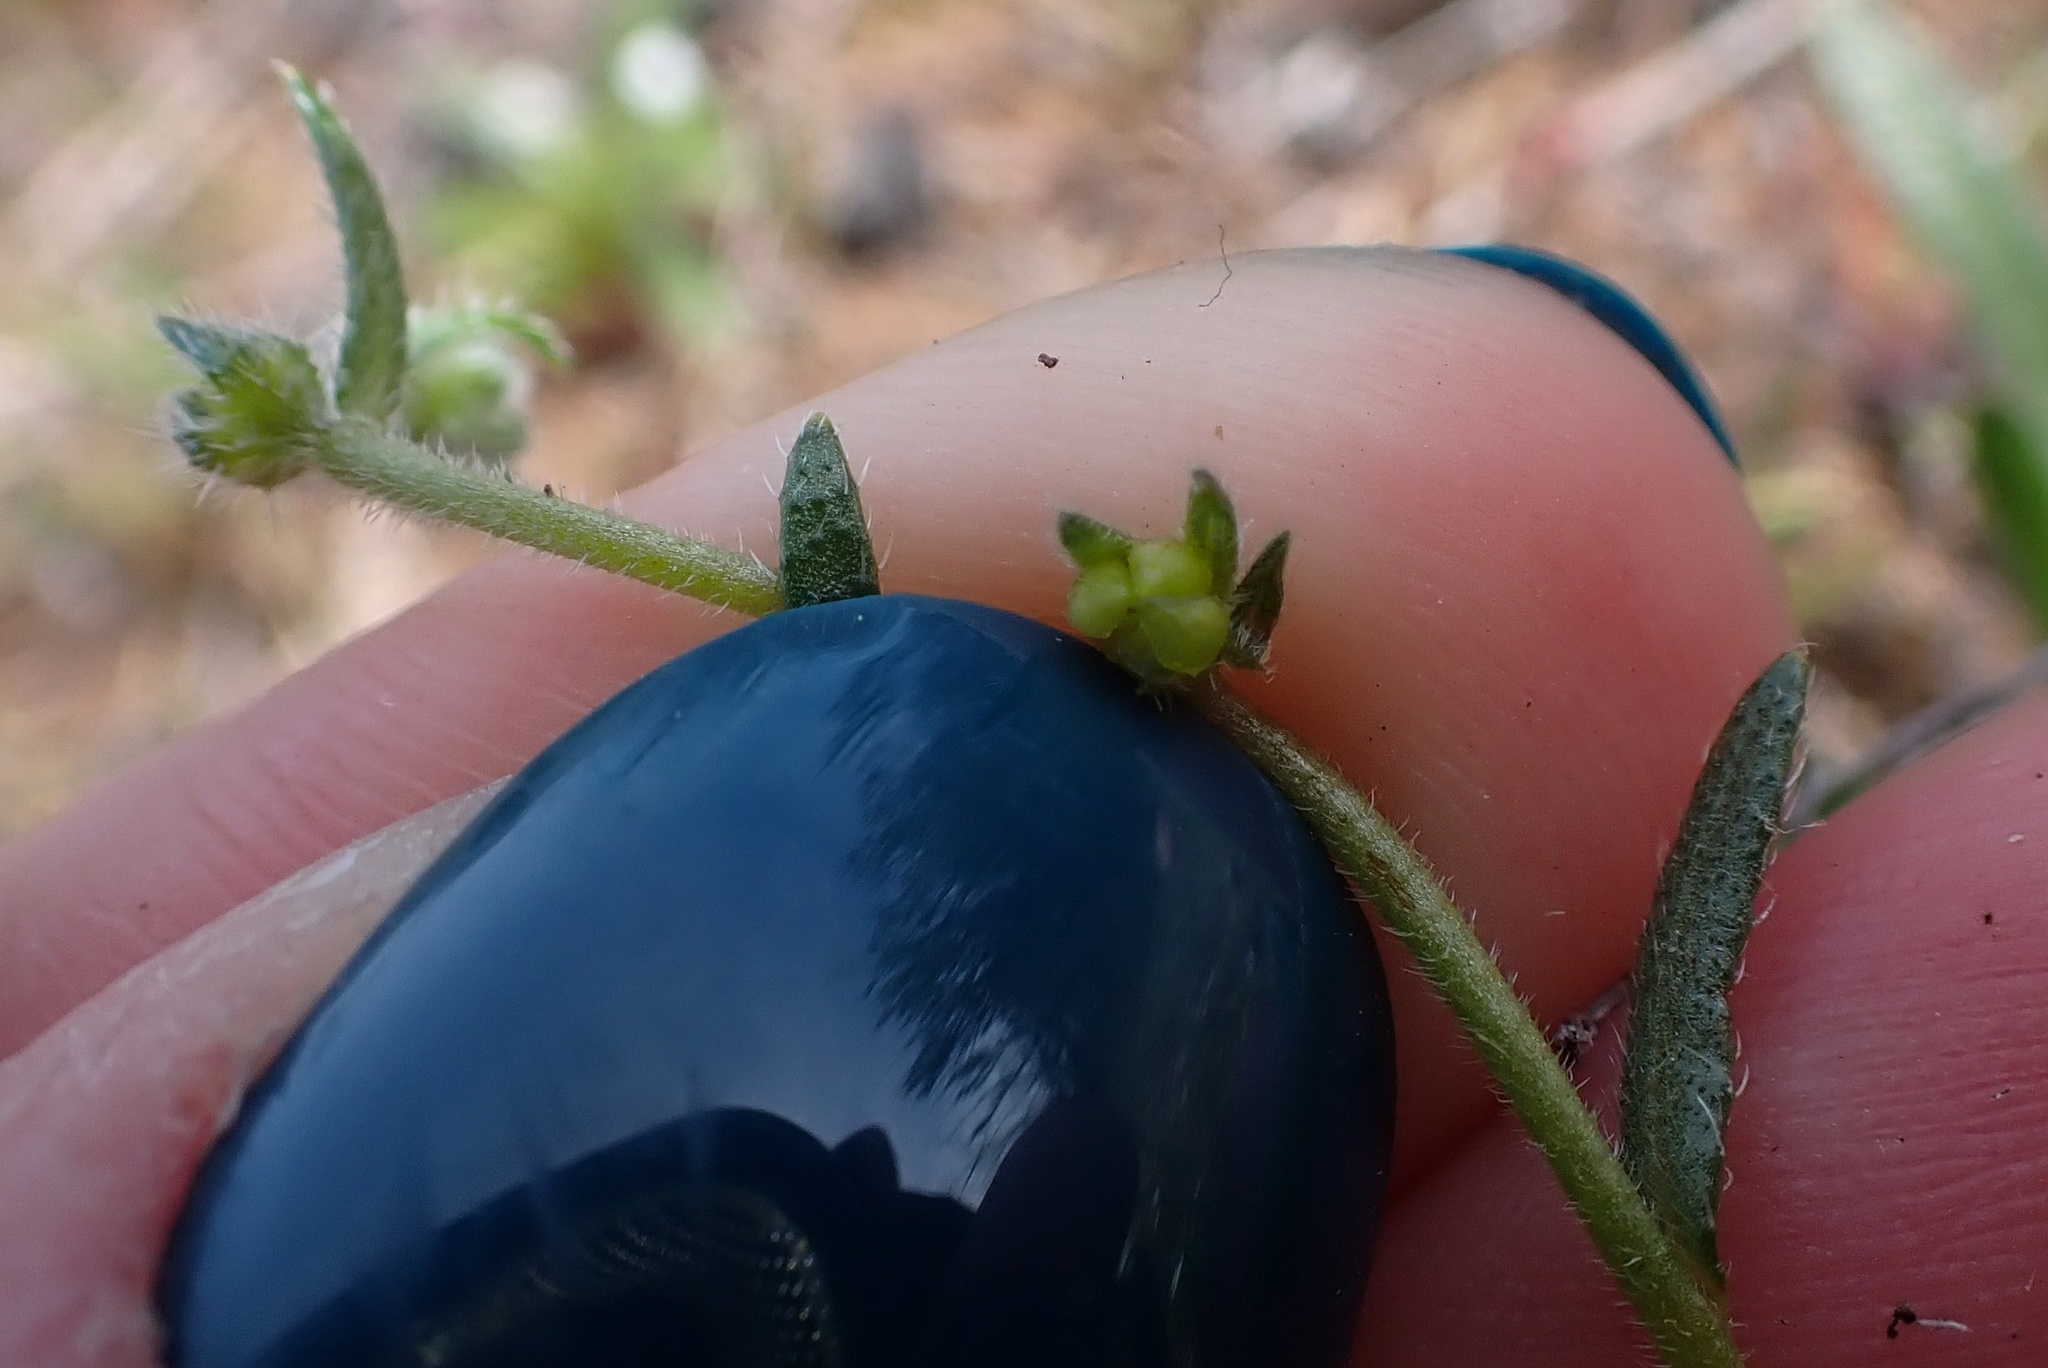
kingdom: Plantae
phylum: Tracheophyta
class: Magnoliopsida
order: Boraginales
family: Boraginaceae
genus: Plagiobothrys
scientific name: Plagiobothrys collinus
